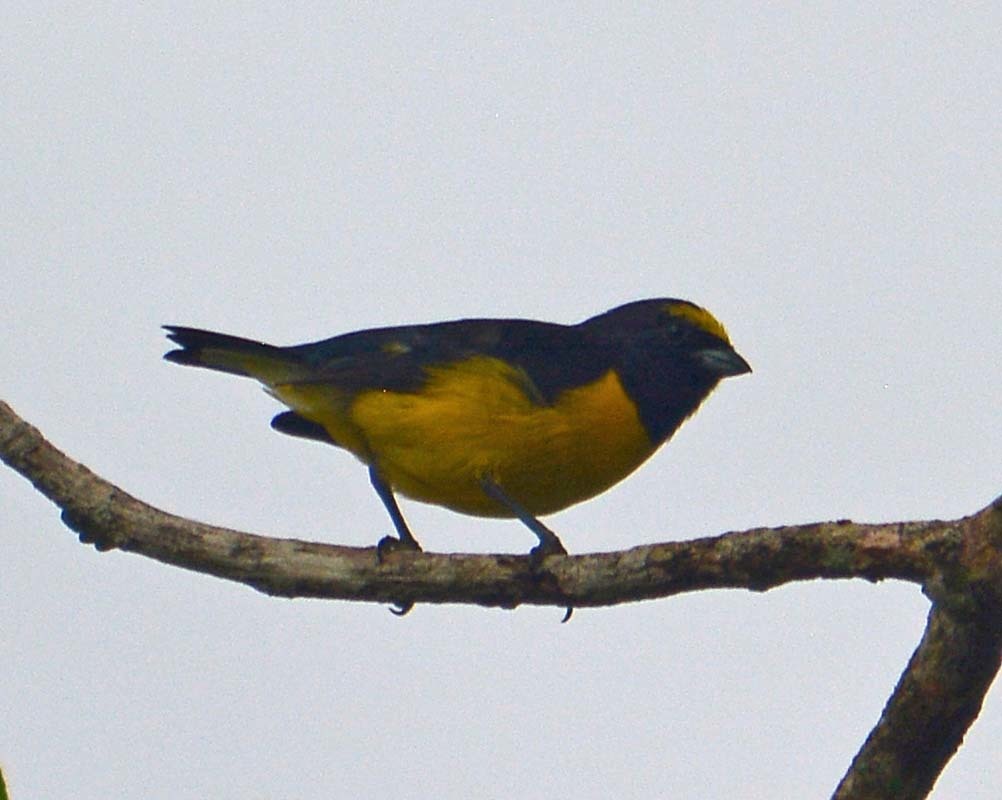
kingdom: Animalia
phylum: Chordata
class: Aves
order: Passeriformes
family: Fringillidae
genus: Euphonia
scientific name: Euphonia affinis
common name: Scrub euphonia
